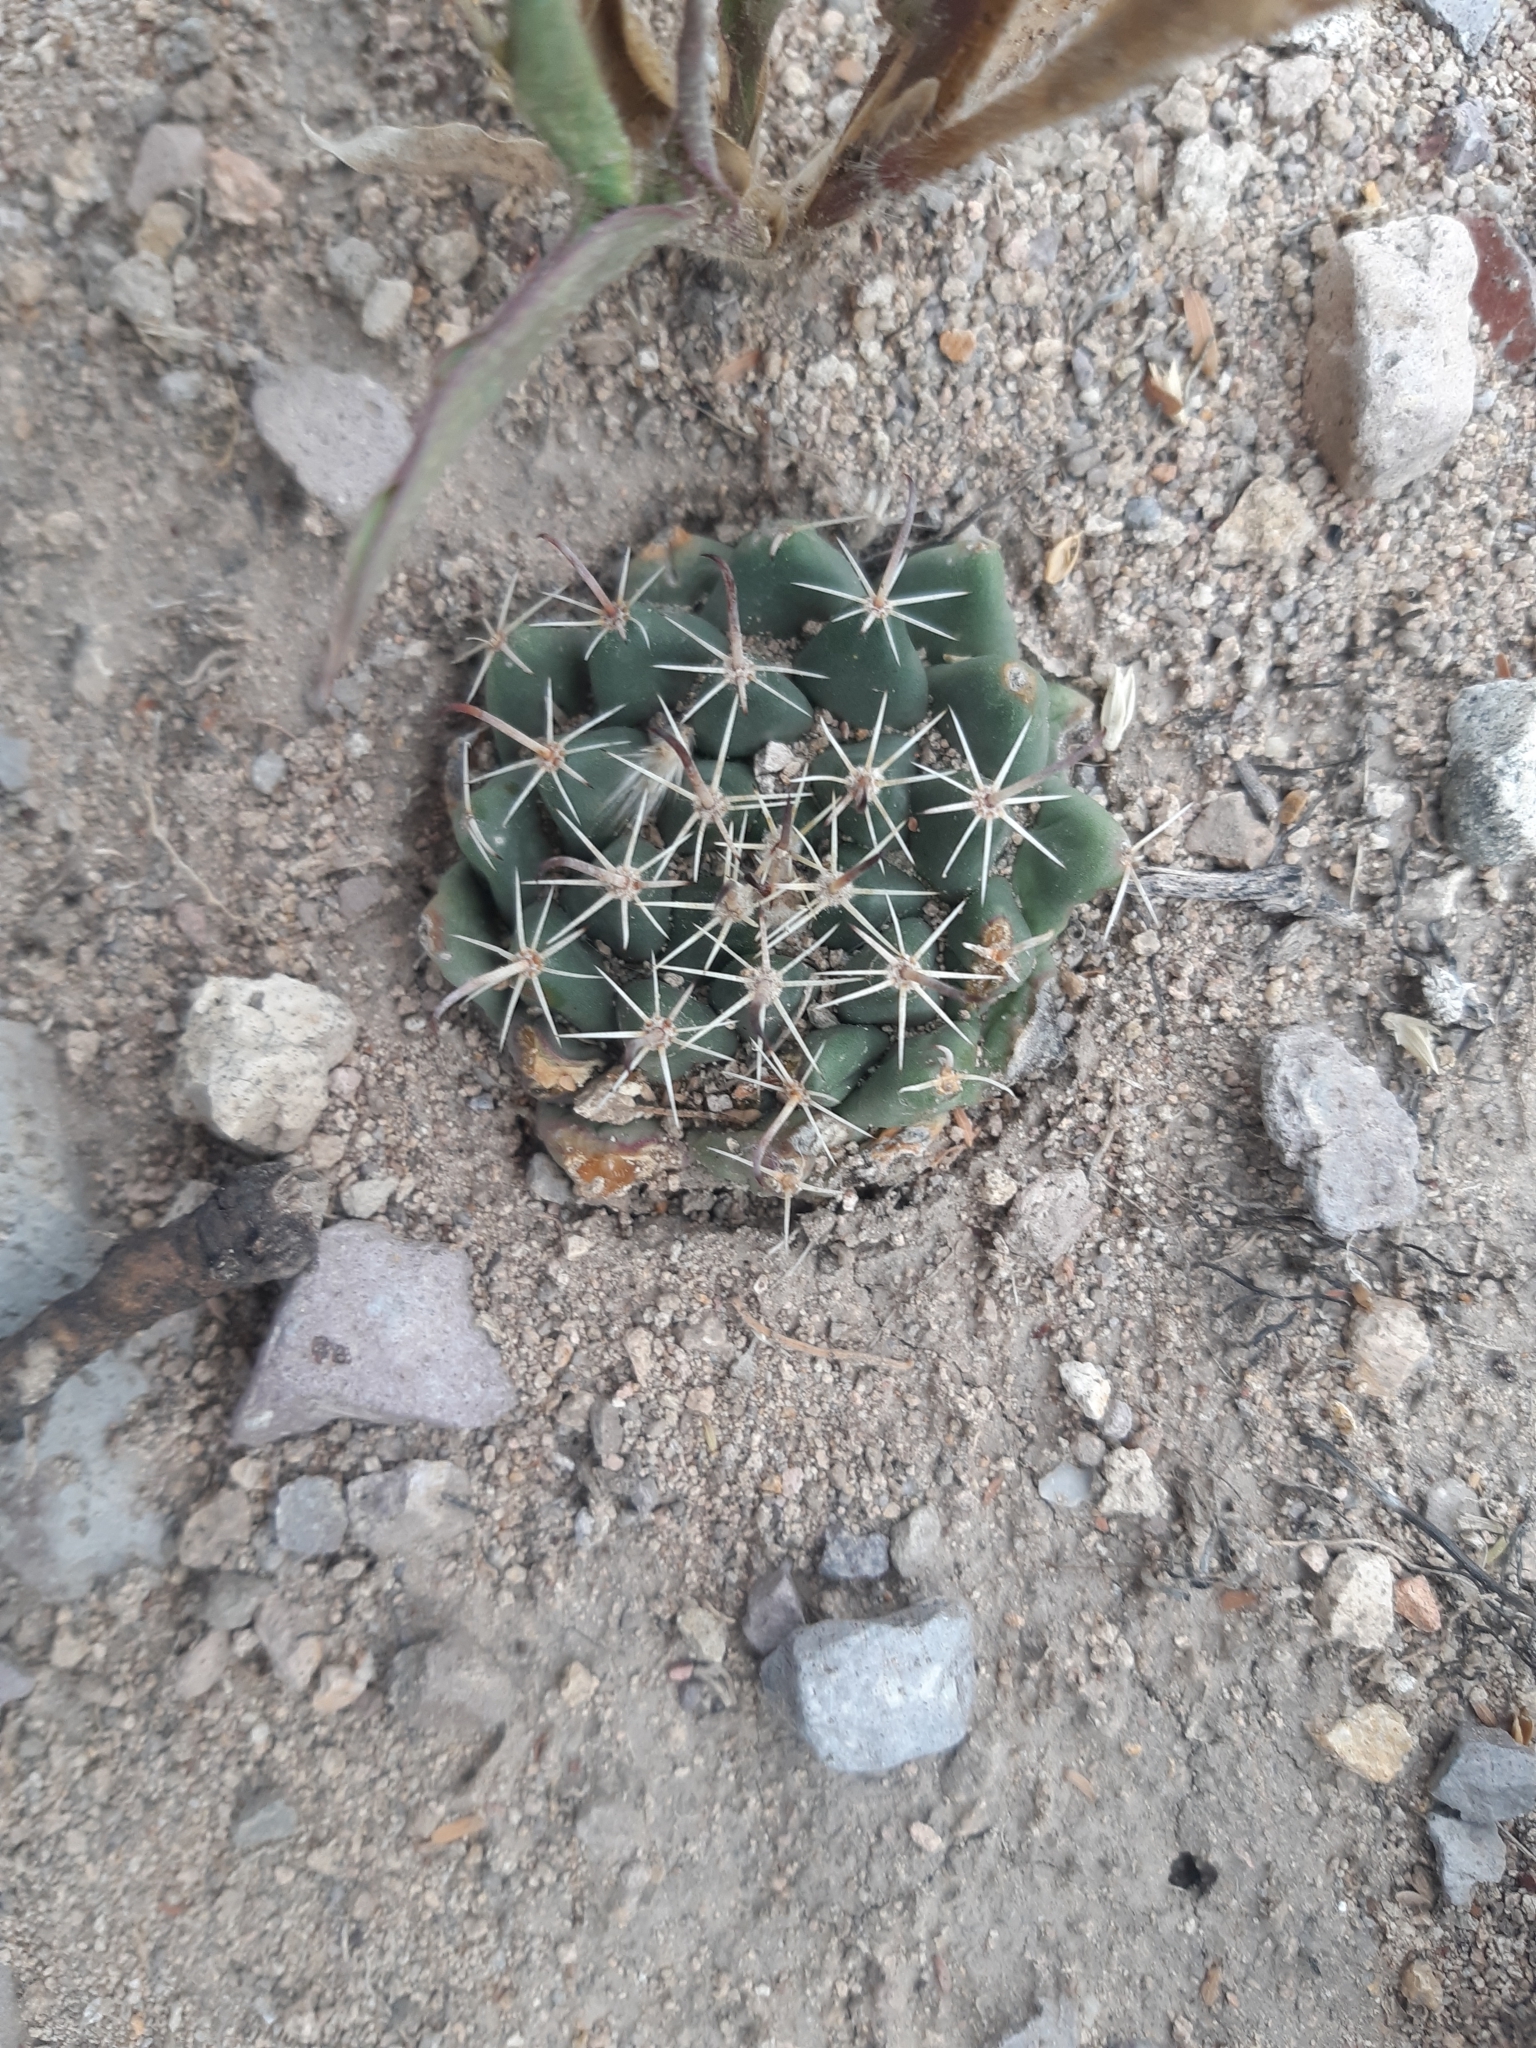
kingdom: Plantae
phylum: Tracheophyta
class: Magnoliopsida
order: Caryophyllales
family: Cactaceae
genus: Mammillaria
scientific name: Mammillaria uncinata
